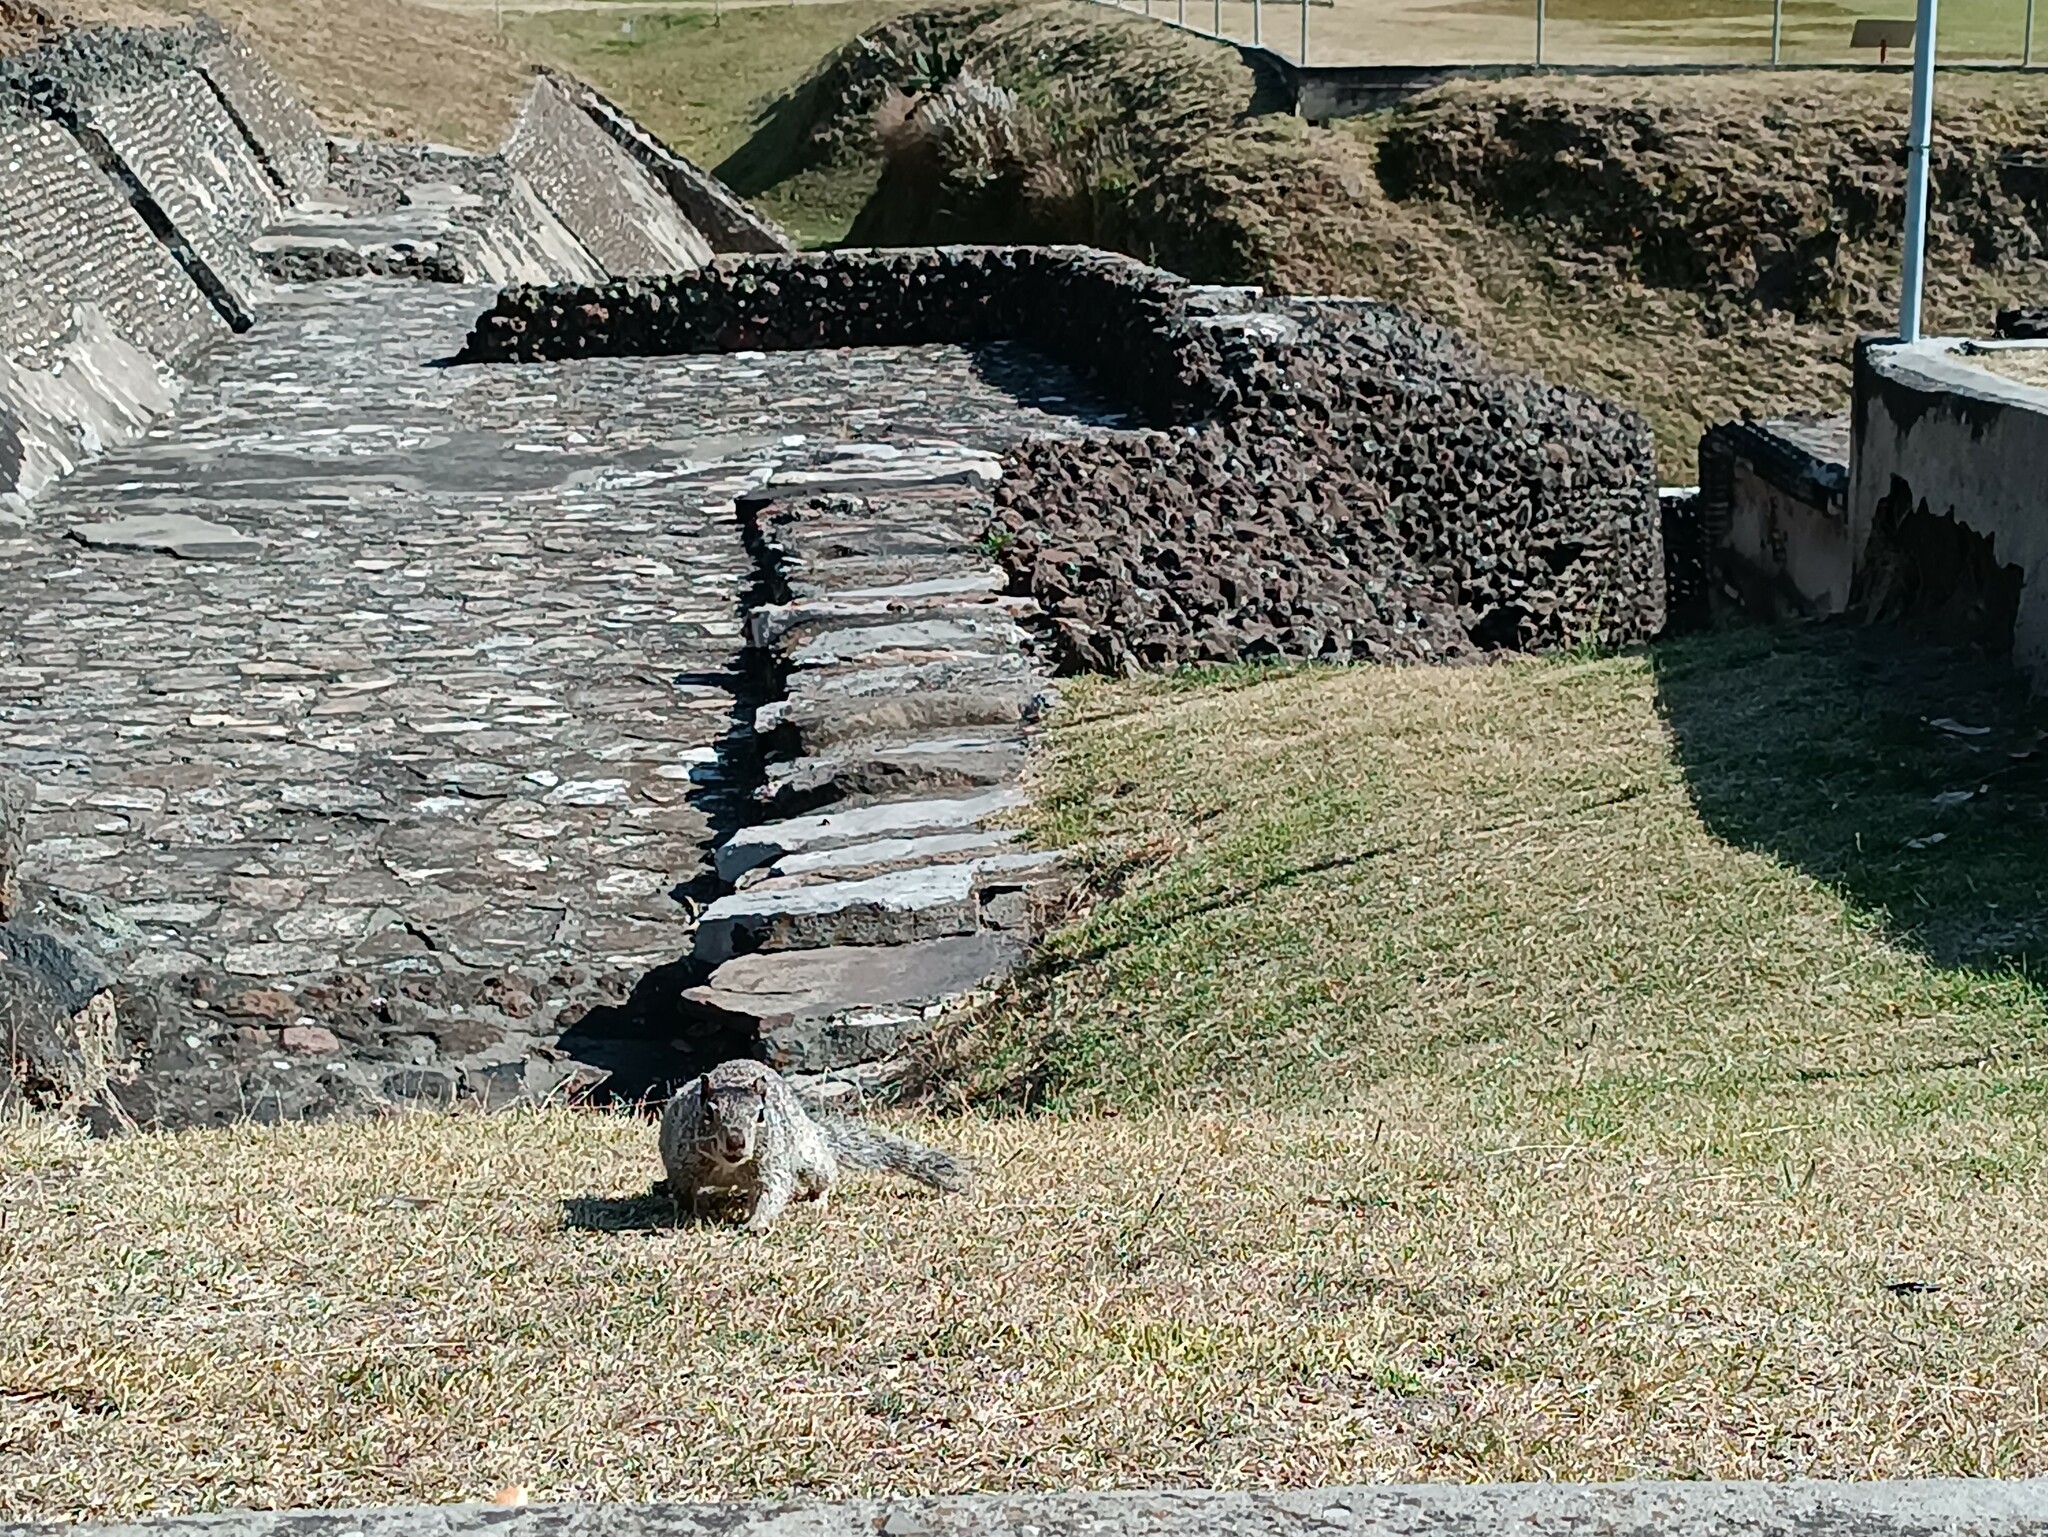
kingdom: Animalia
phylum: Chordata
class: Mammalia
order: Rodentia
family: Sciuridae
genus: Otospermophilus
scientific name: Otospermophilus variegatus
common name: Rock squirrel
